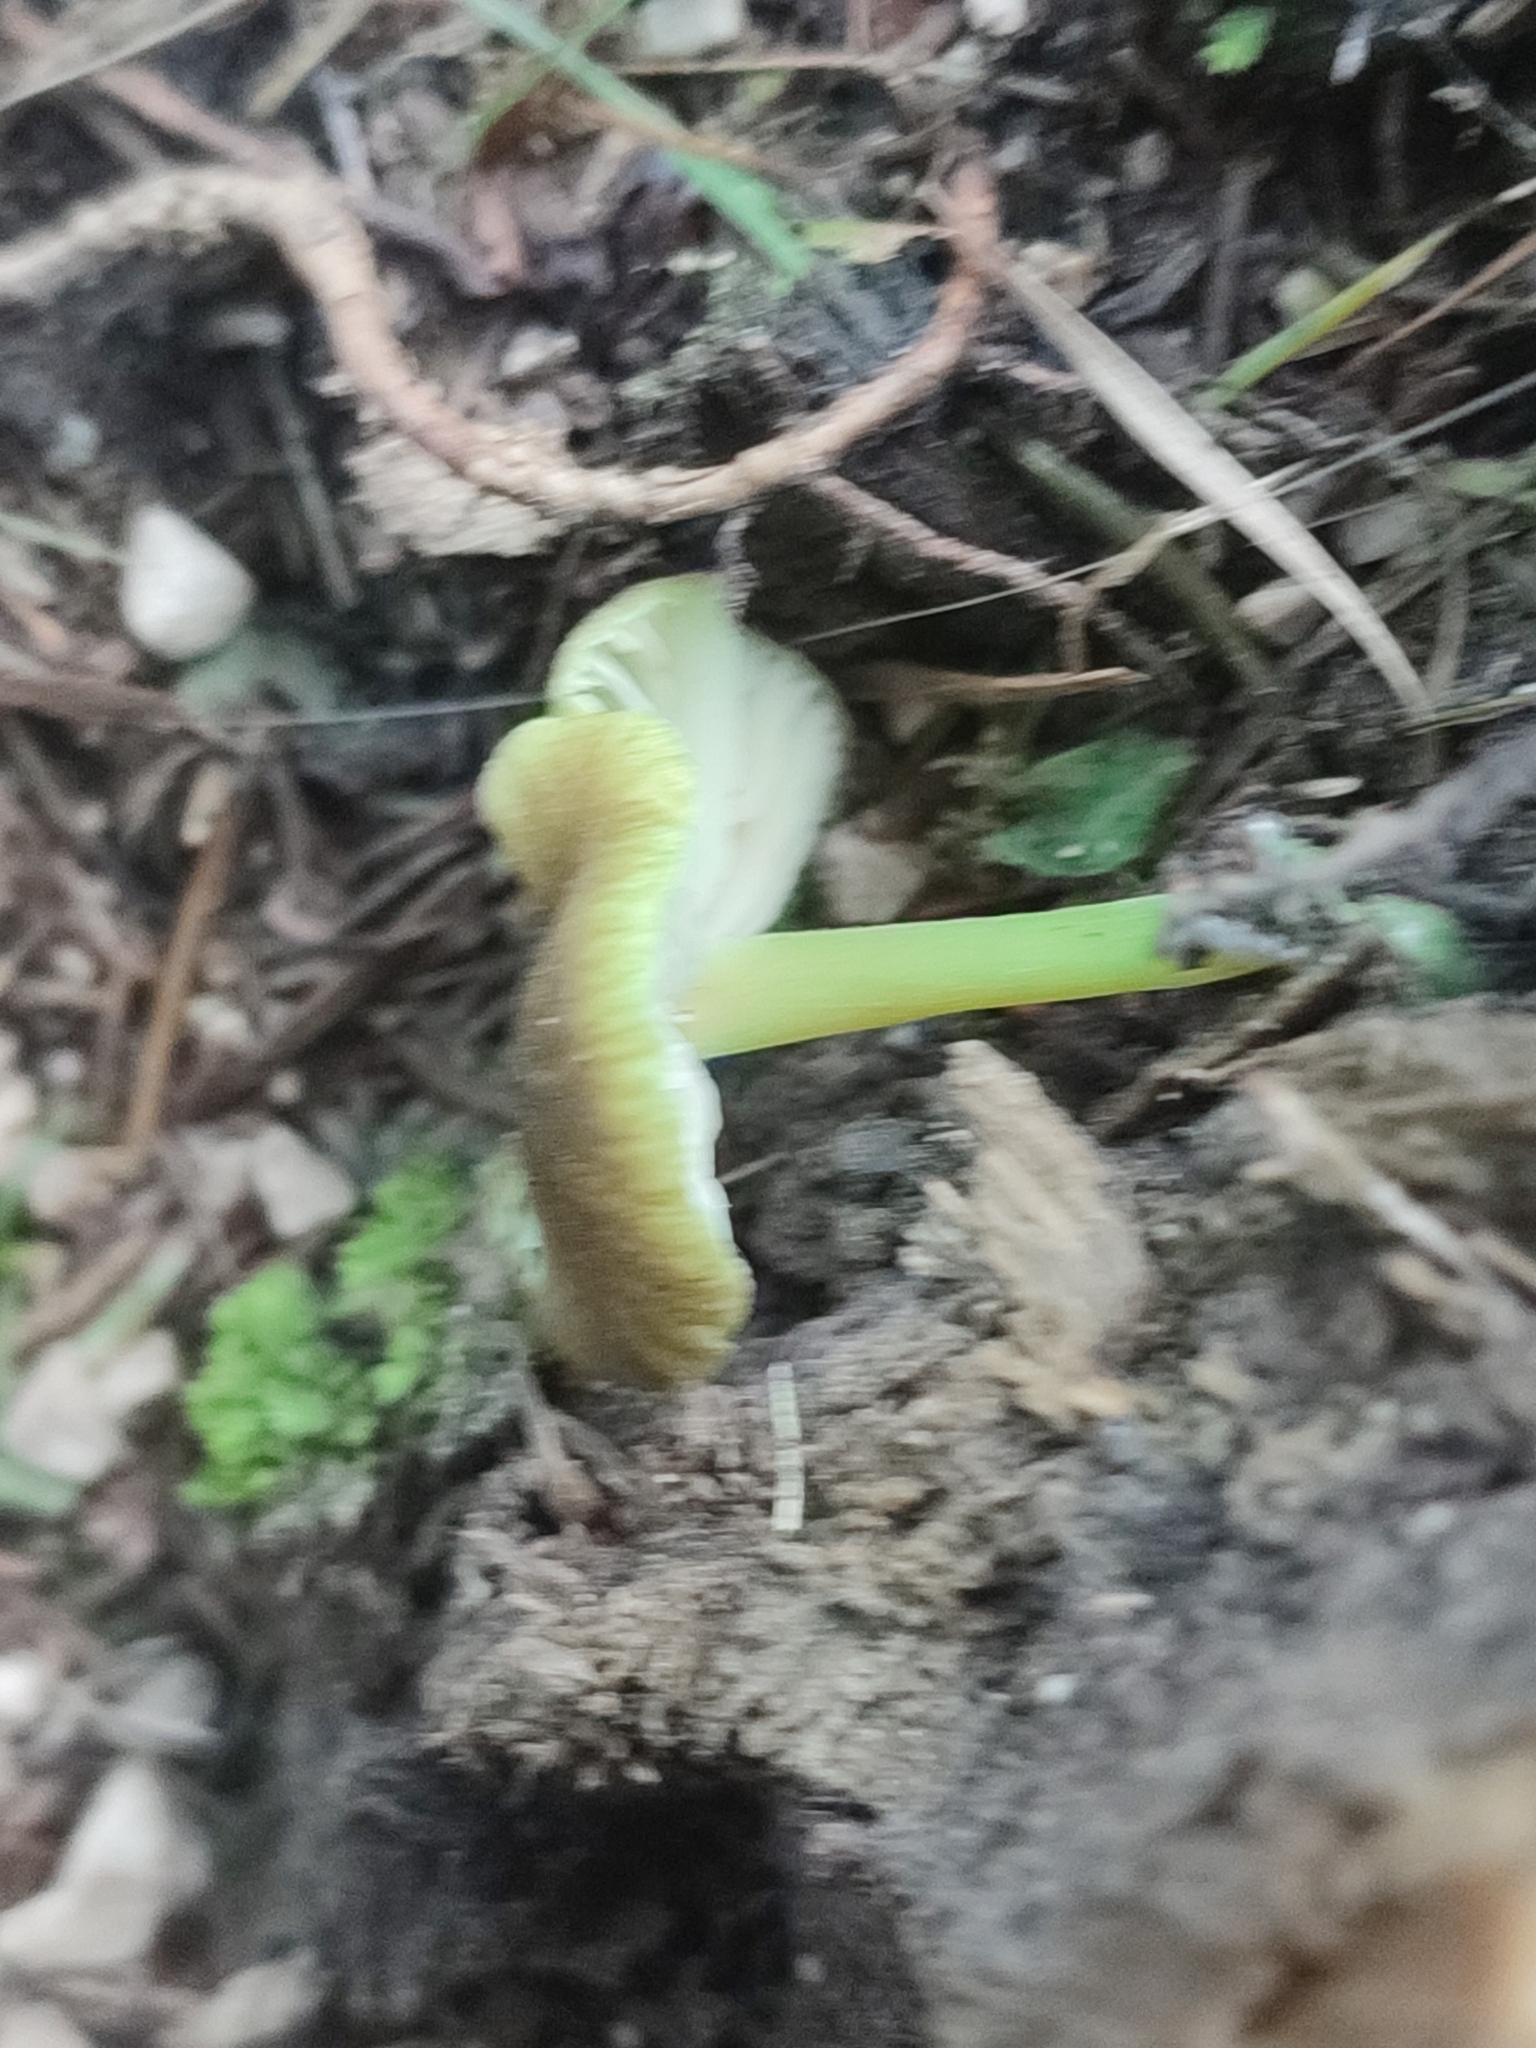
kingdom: Fungi
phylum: Basidiomycota
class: Agaricomycetes
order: Agaricales
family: Entolomataceae
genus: Entoloma
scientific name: Entoloma incanum
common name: Mousepee pinkgill
